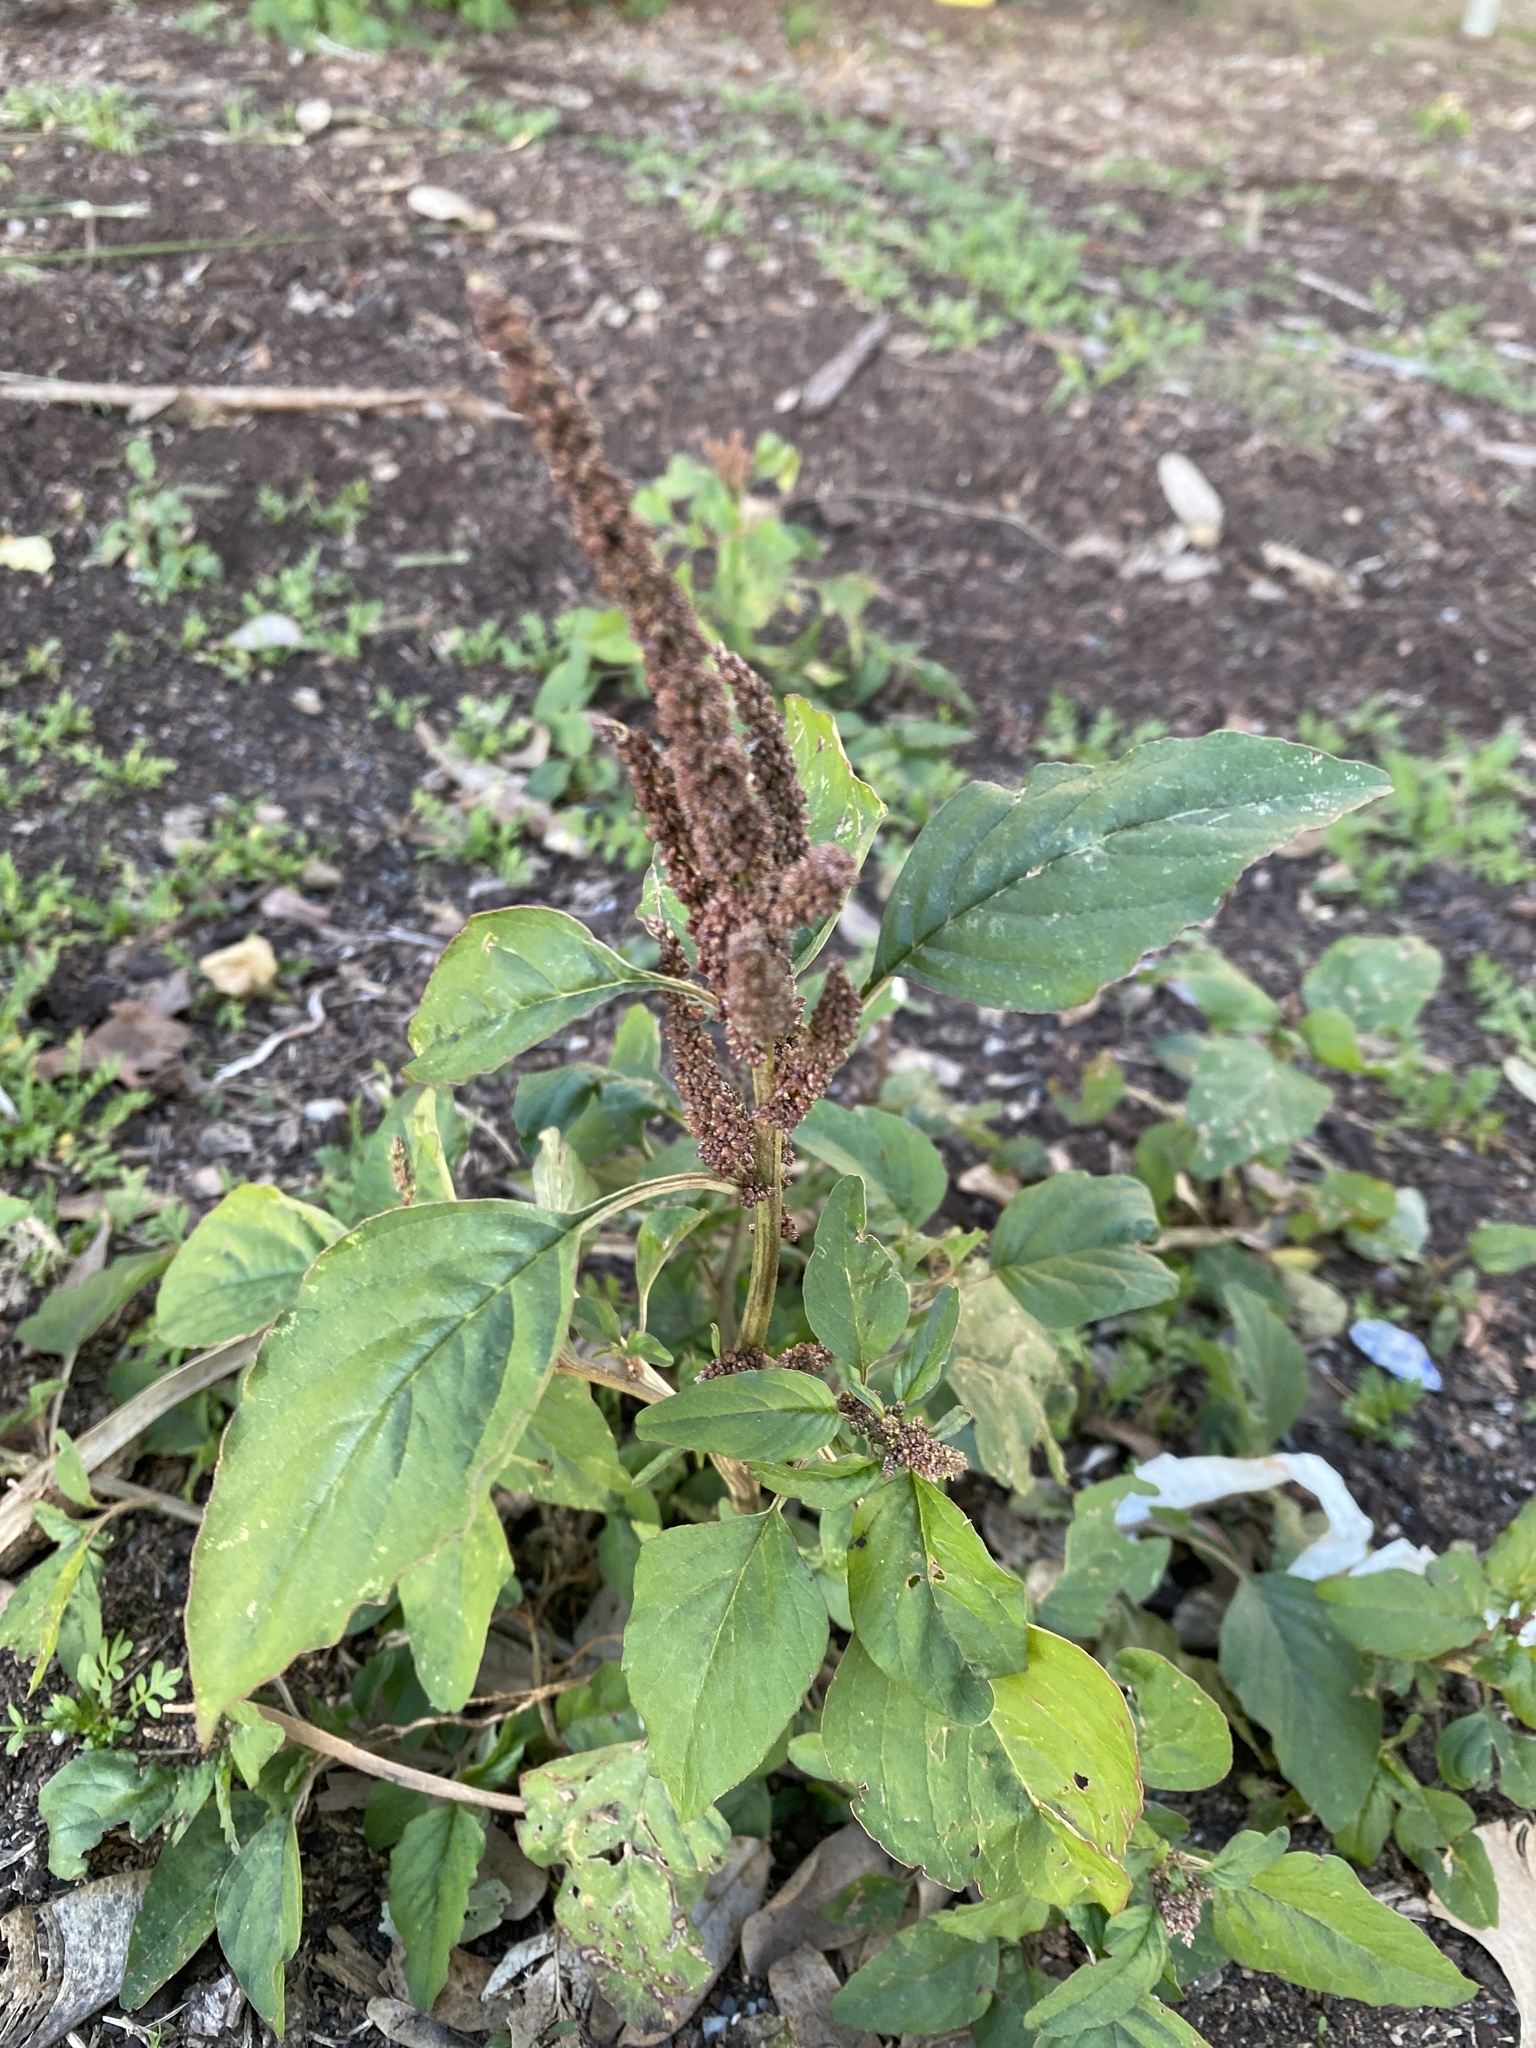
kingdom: Plantae
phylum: Tracheophyta
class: Magnoliopsida
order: Caryophyllales
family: Amaranthaceae
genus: Amaranthus
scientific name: Amaranthus viridis
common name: Slender amaranth
